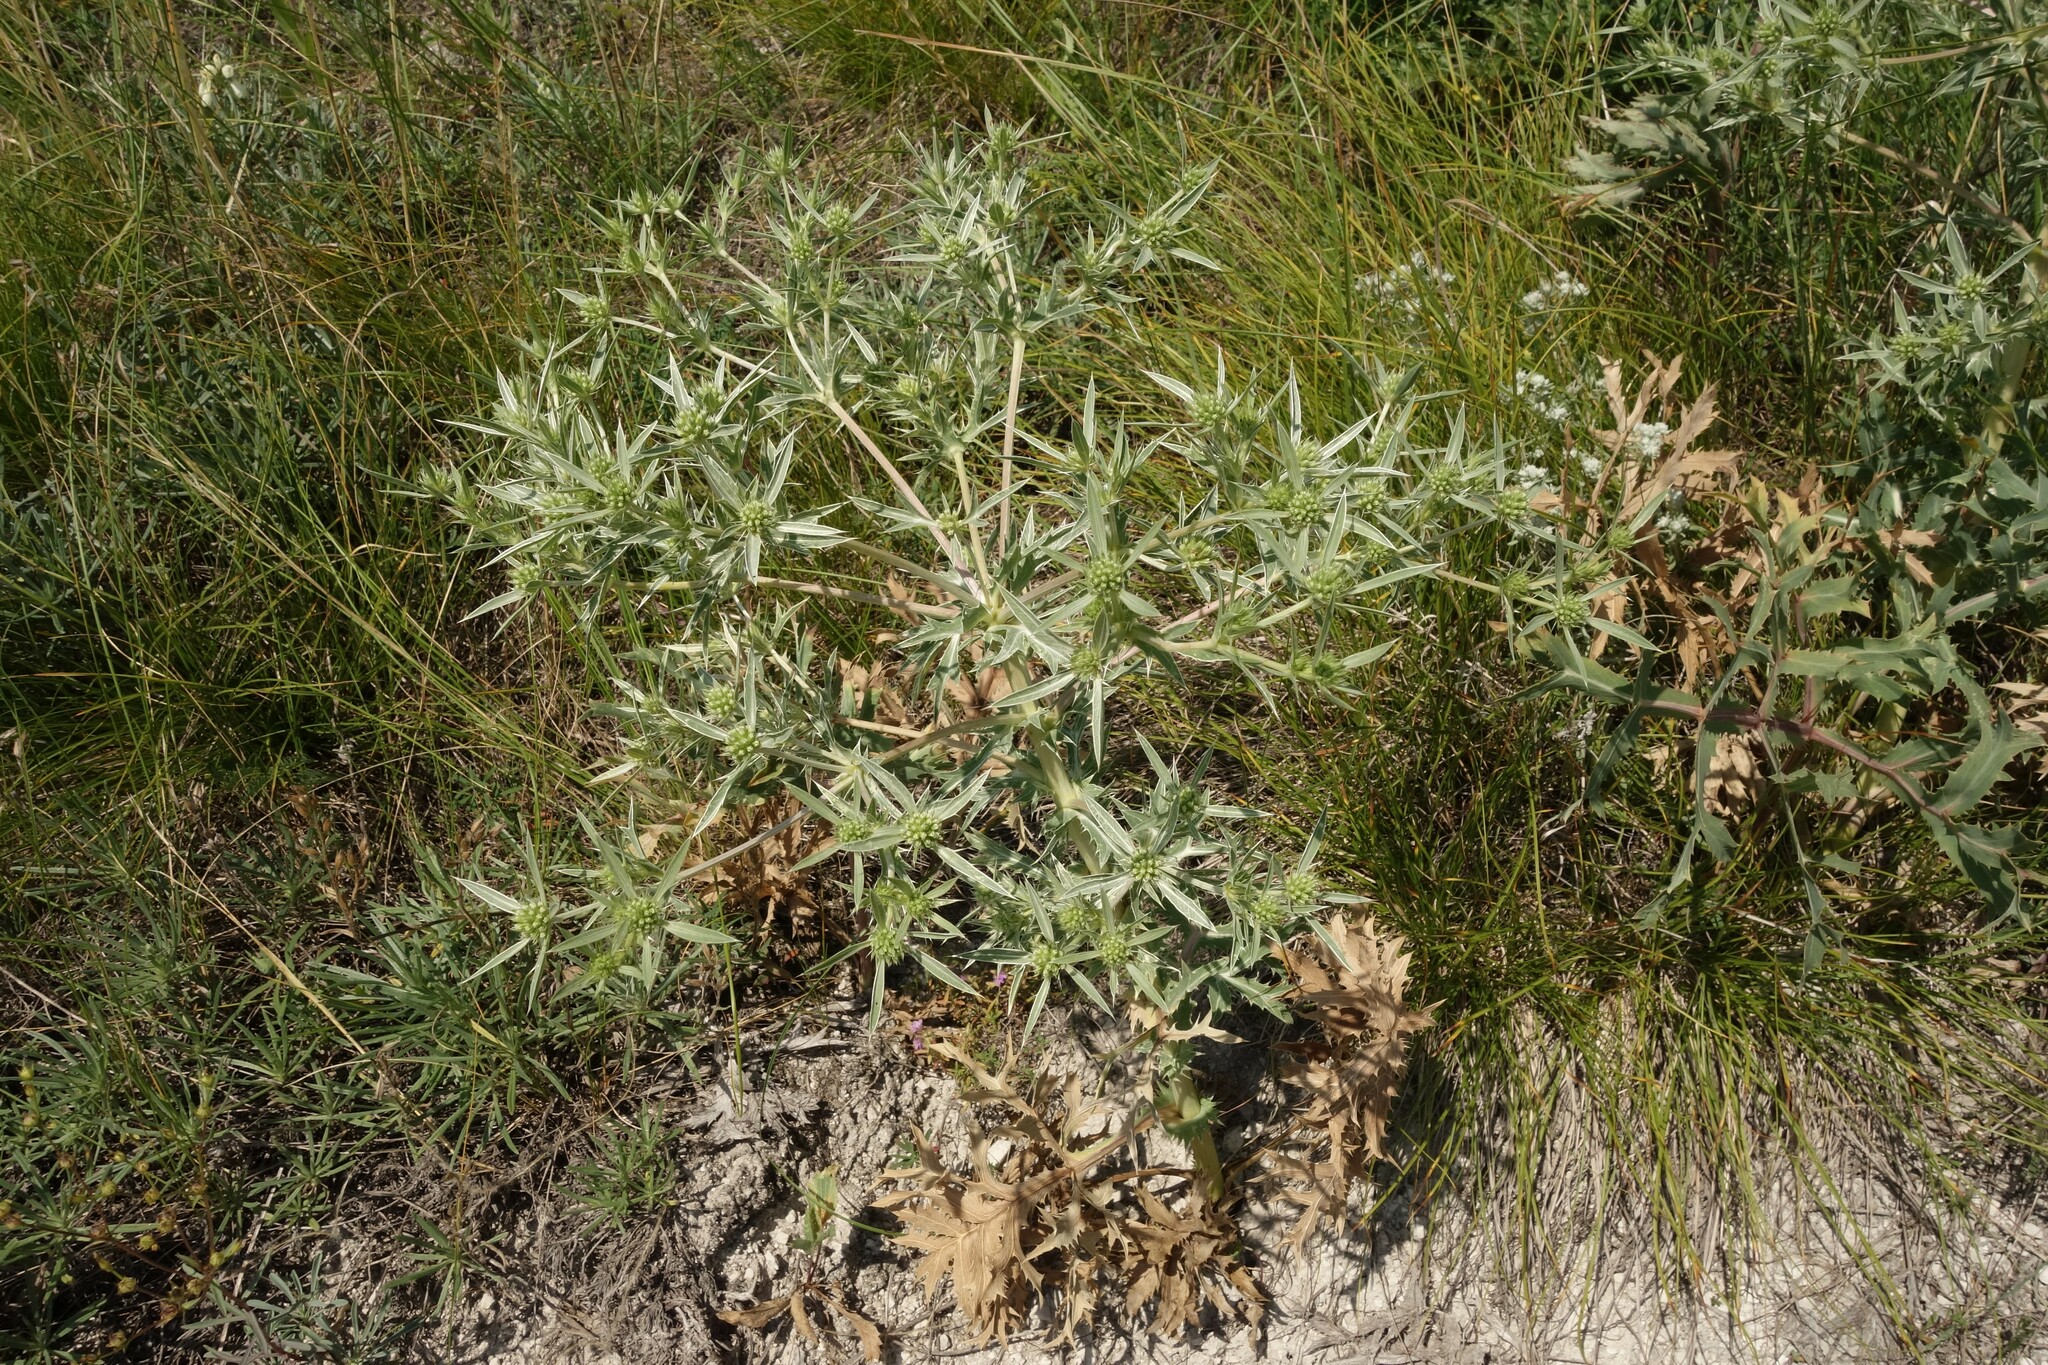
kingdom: Plantae
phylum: Tracheophyta
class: Magnoliopsida
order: Apiales
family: Apiaceae
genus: Eryngium
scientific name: Eryngium campestre
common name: Field eryngo
